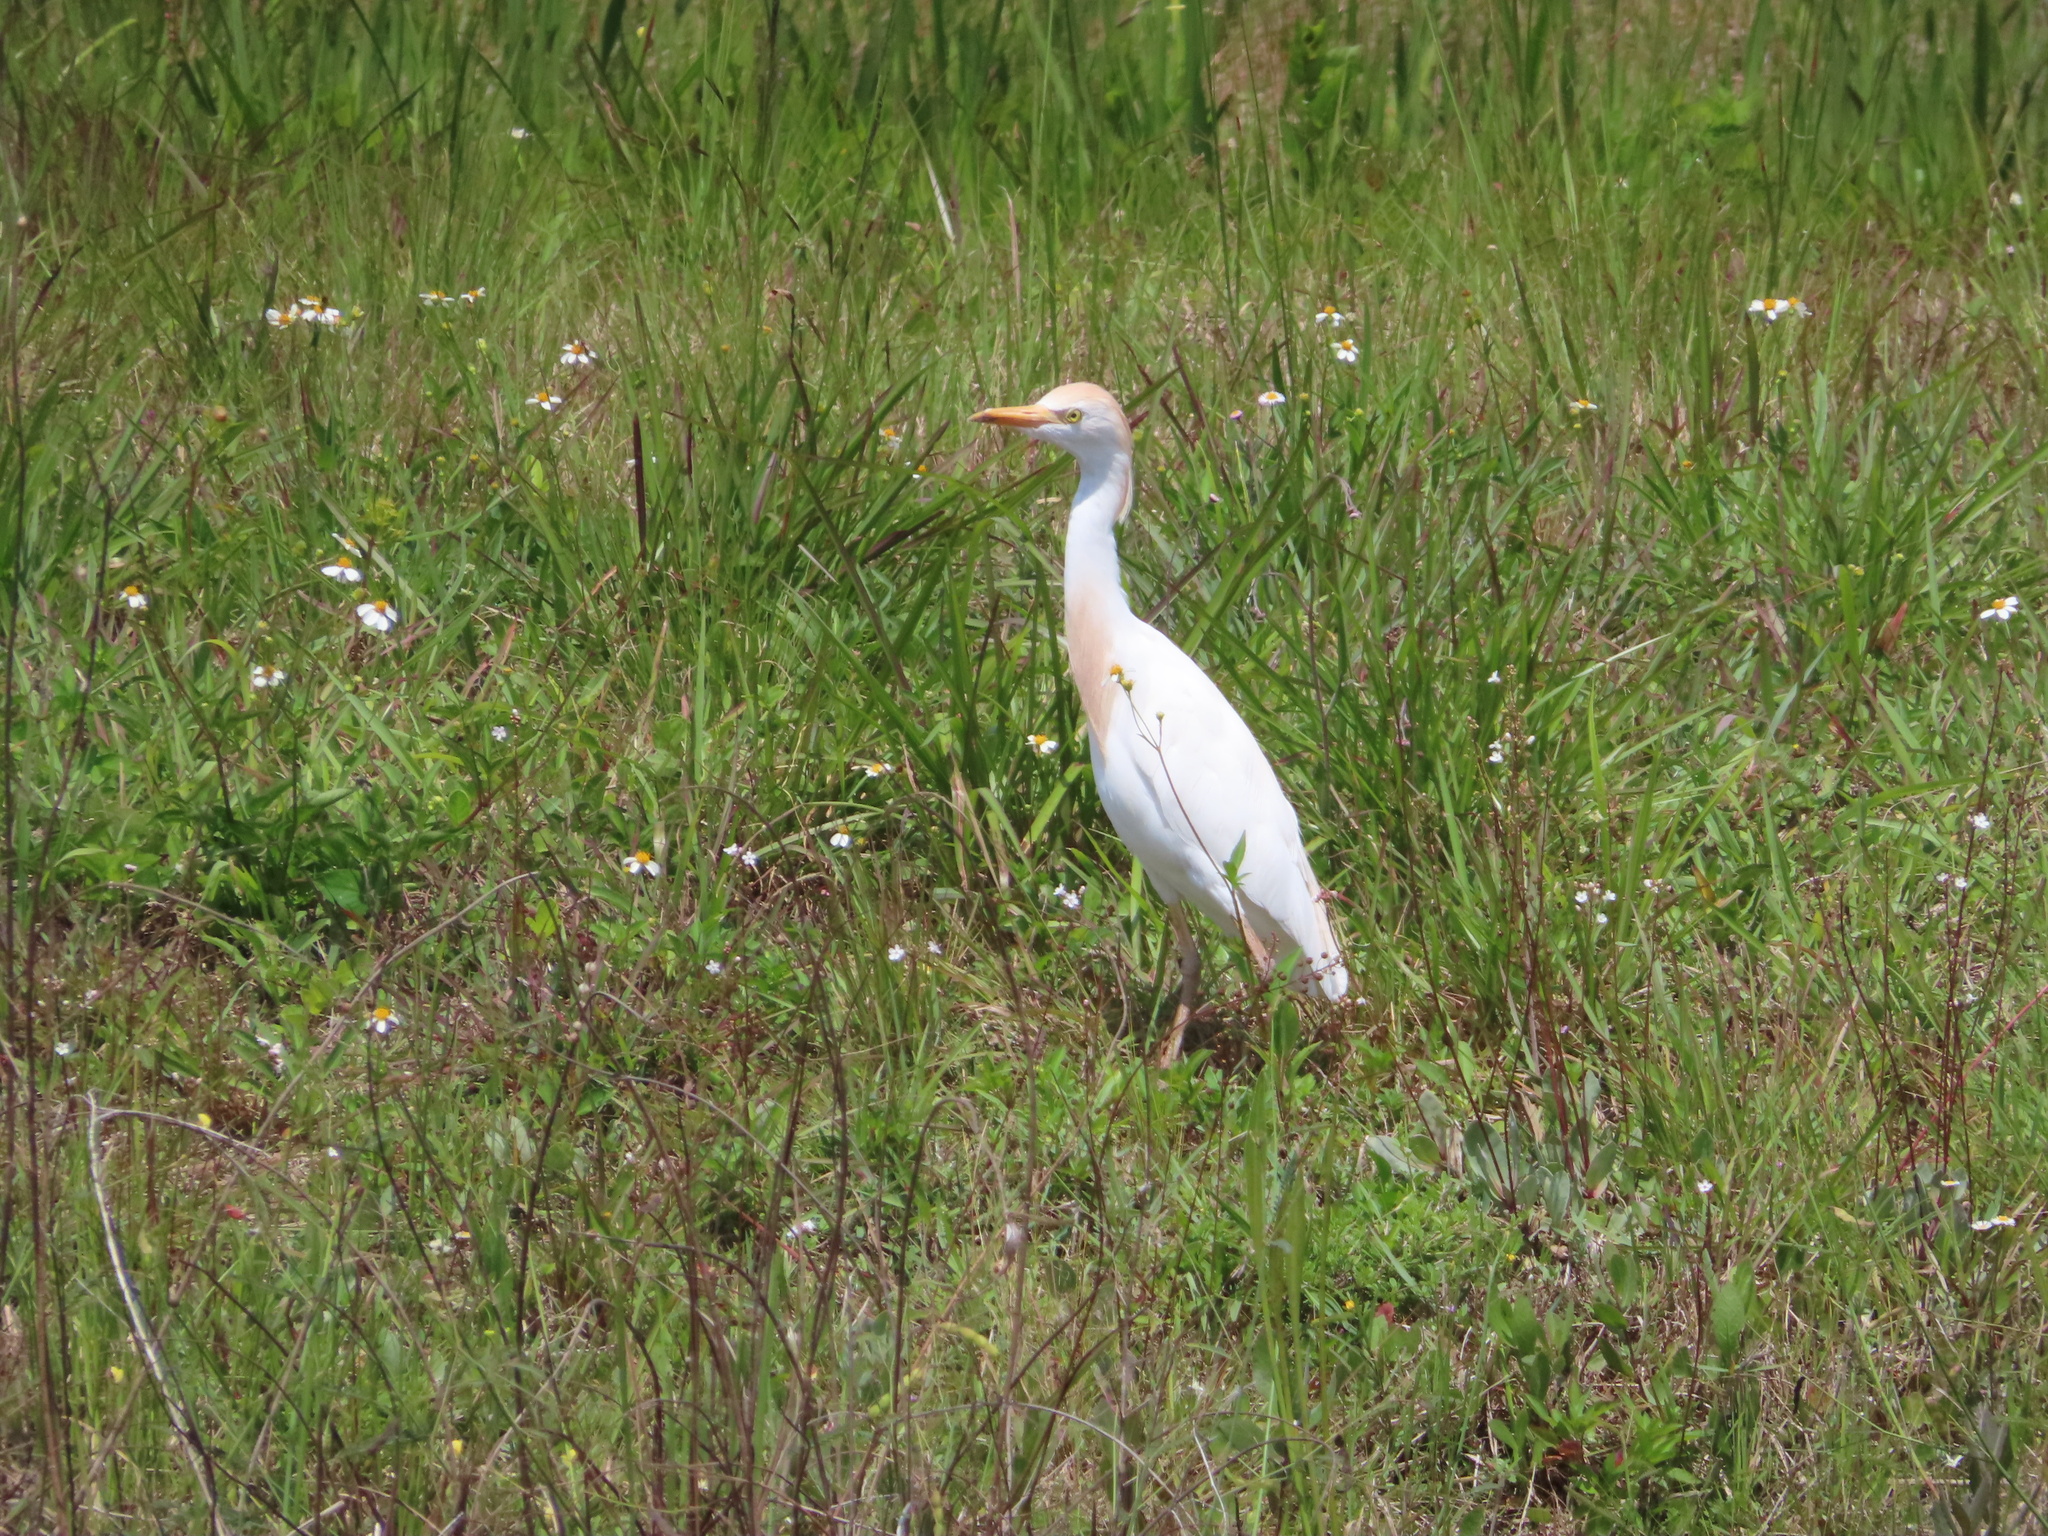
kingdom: Animalia
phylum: Chordata
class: Aves
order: Pelecaniformes
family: Ardeidae
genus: Bubulcus
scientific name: Bubulcus ibis
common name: Cattle egret
